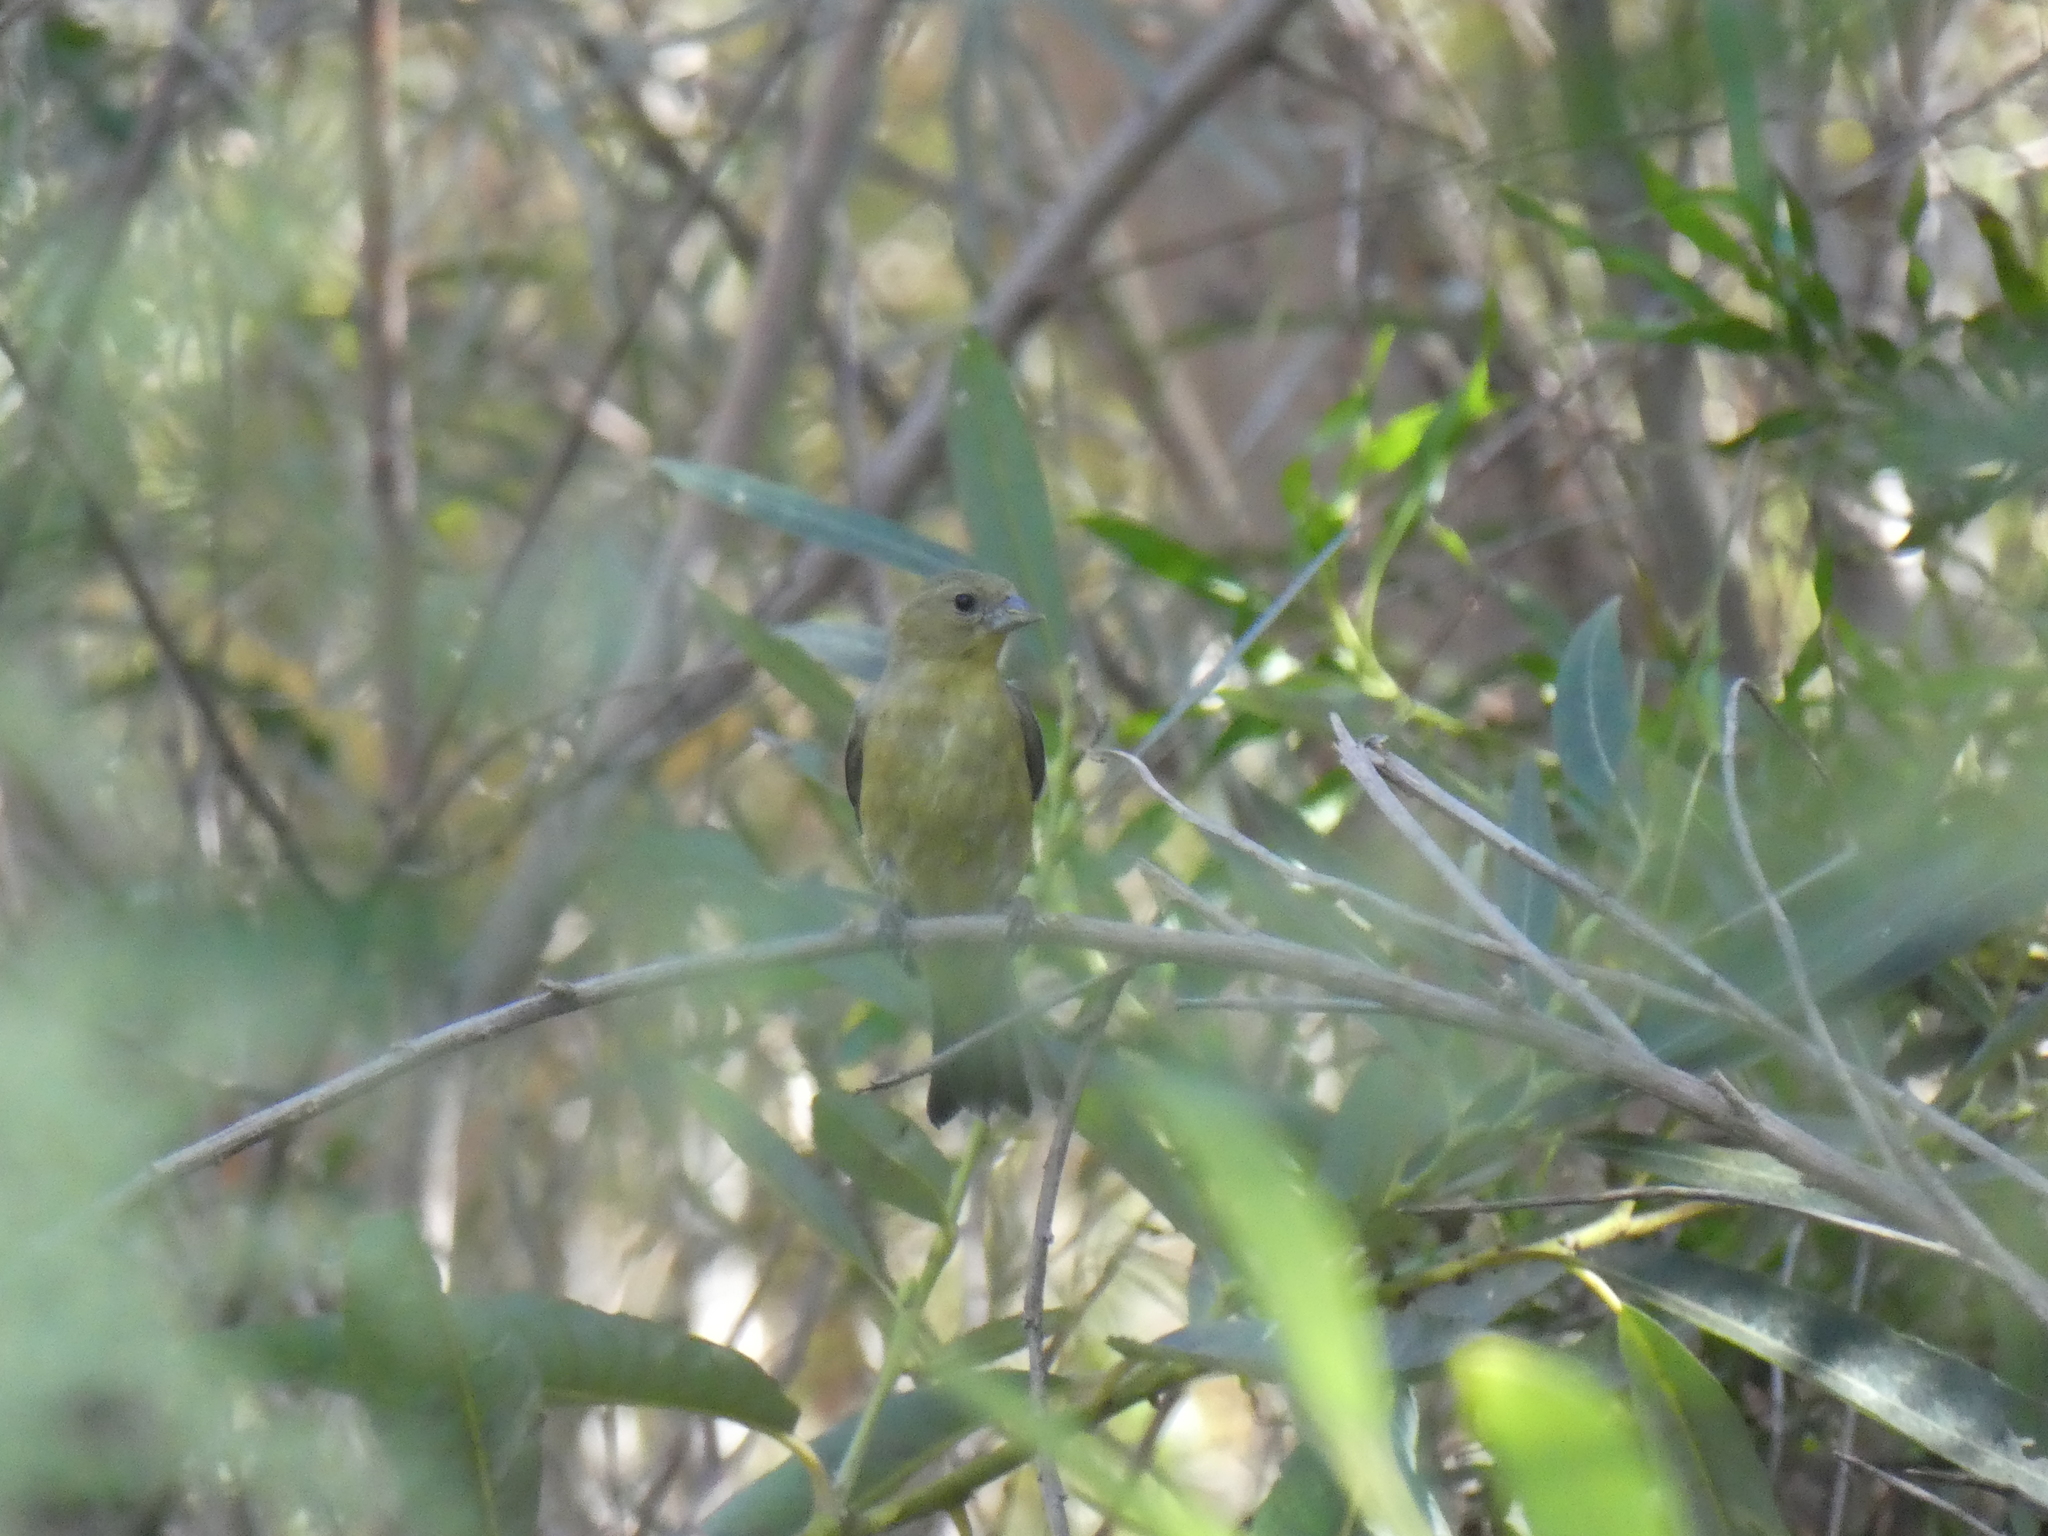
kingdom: Animalia
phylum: Chordata
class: Aves
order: Passeriformes
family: Fringillidae
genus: Spinus
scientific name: Spinus psaltria
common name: Lesser goldfinch
